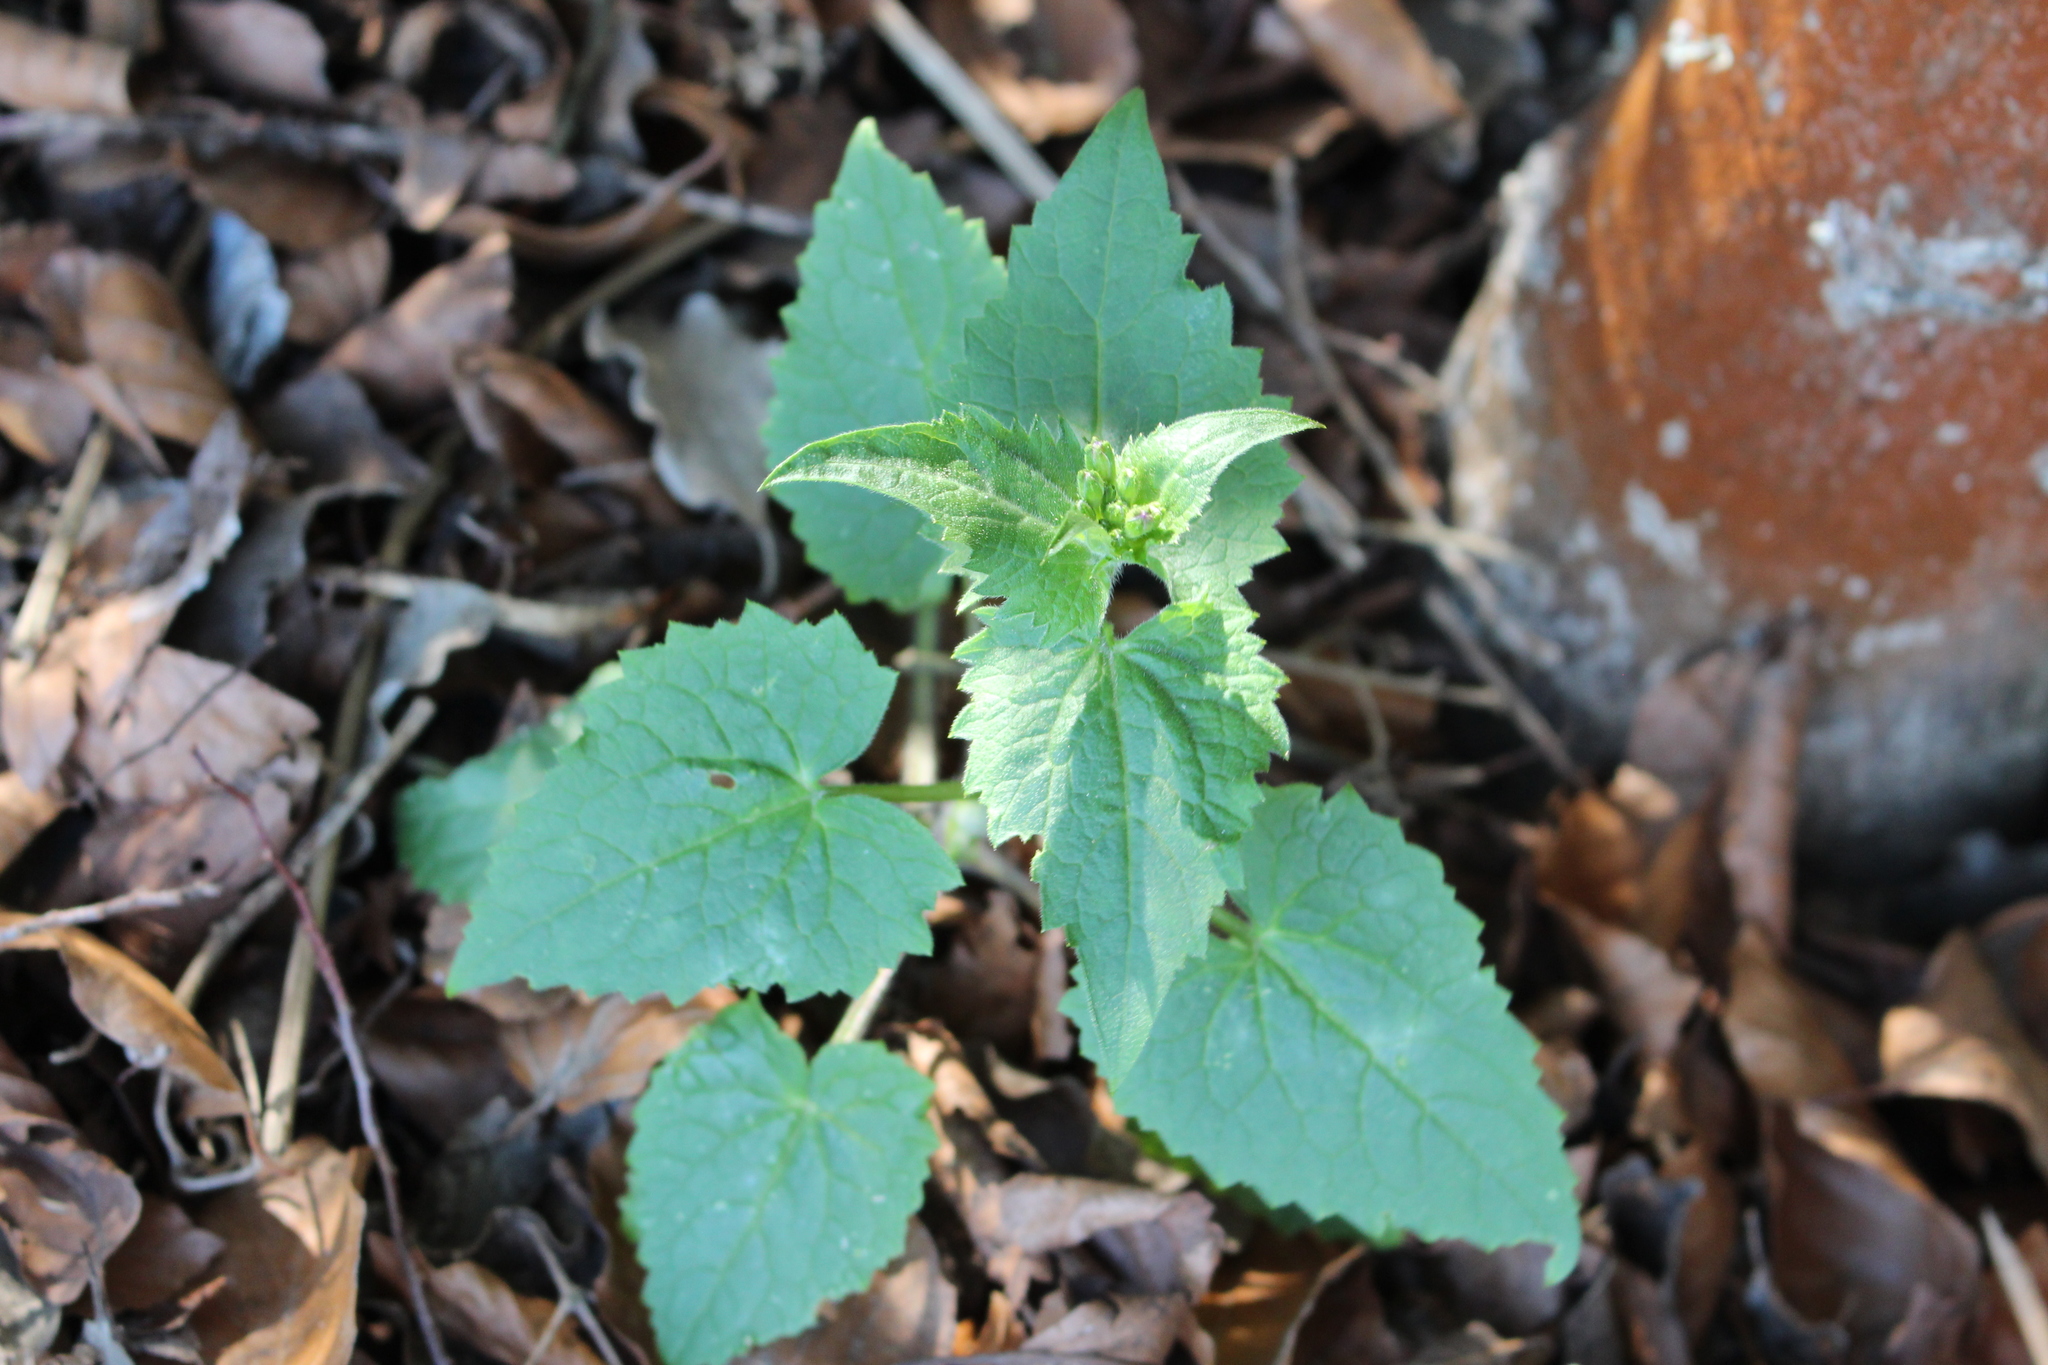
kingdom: Plantae
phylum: Tracheophyta
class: Magnoliopsida
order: Brassicales
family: Brassicaceae
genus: Lunaria
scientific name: Lunaria annua
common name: Honesty
